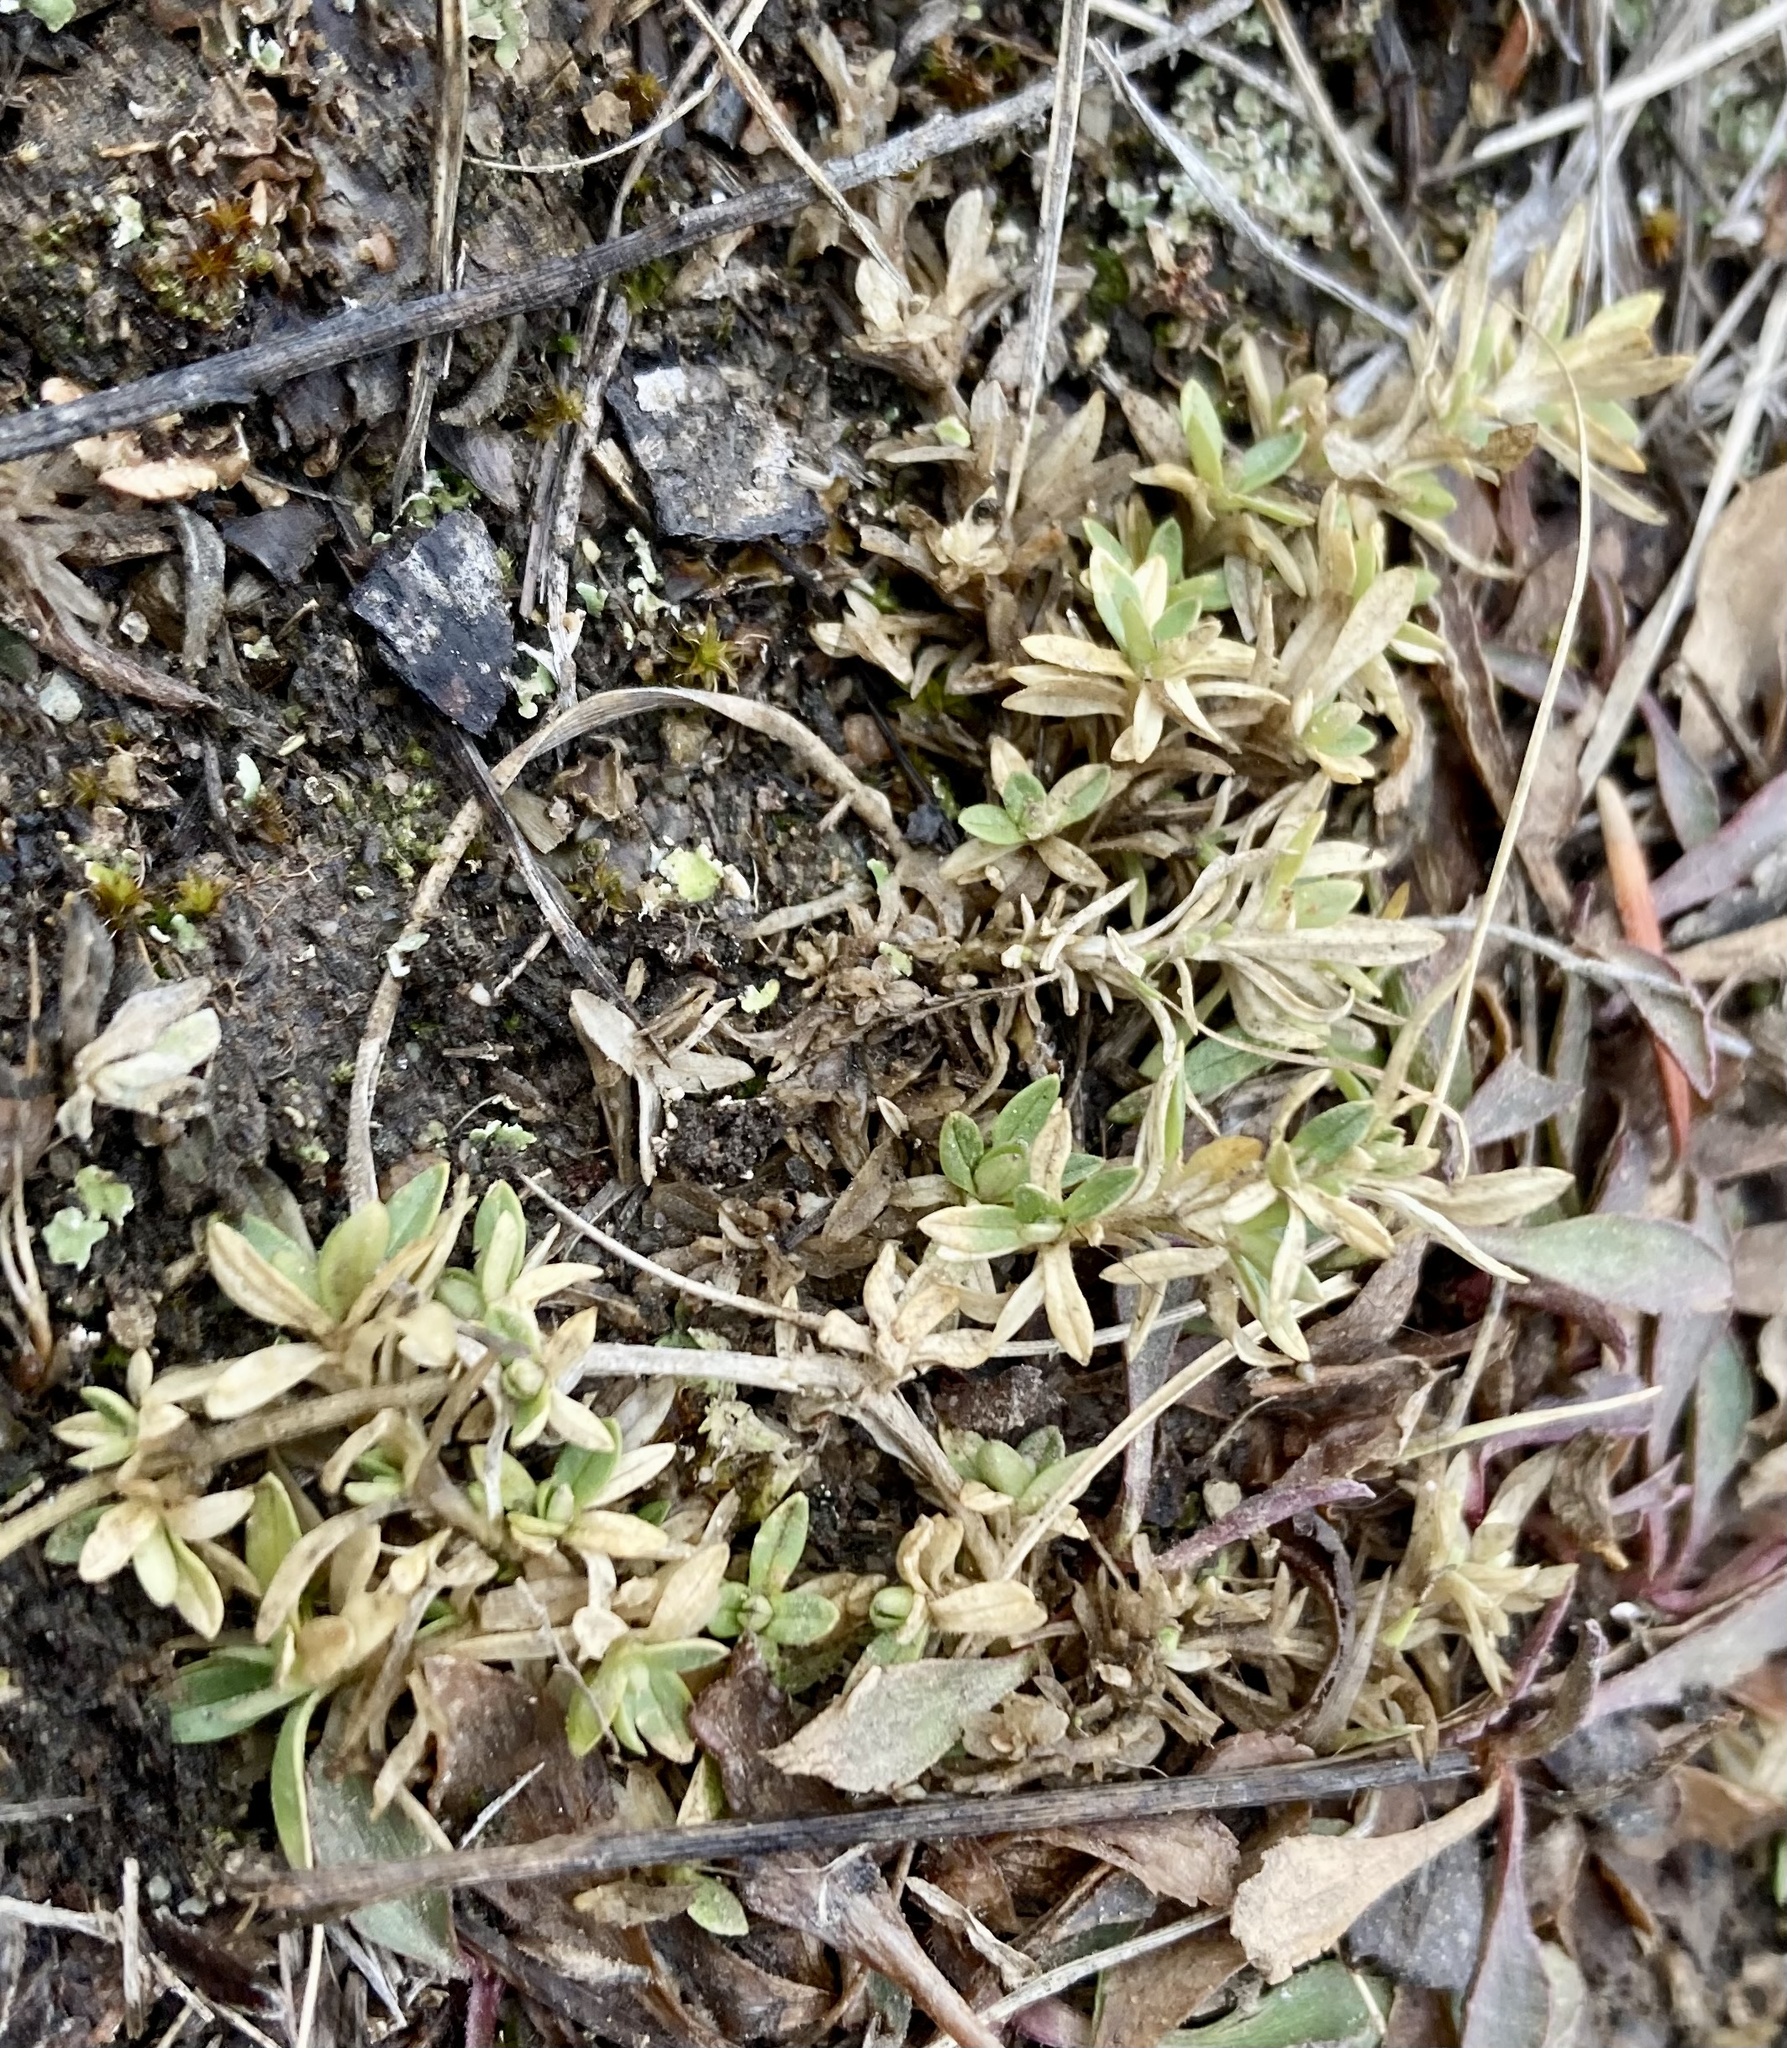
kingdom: Plantae
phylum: Tracheophyta
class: Magnoliopsida
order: Caryophyllales
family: Caryophyllaceae
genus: Cerastium
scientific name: Cerastium arvense
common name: Field mouse-ear
